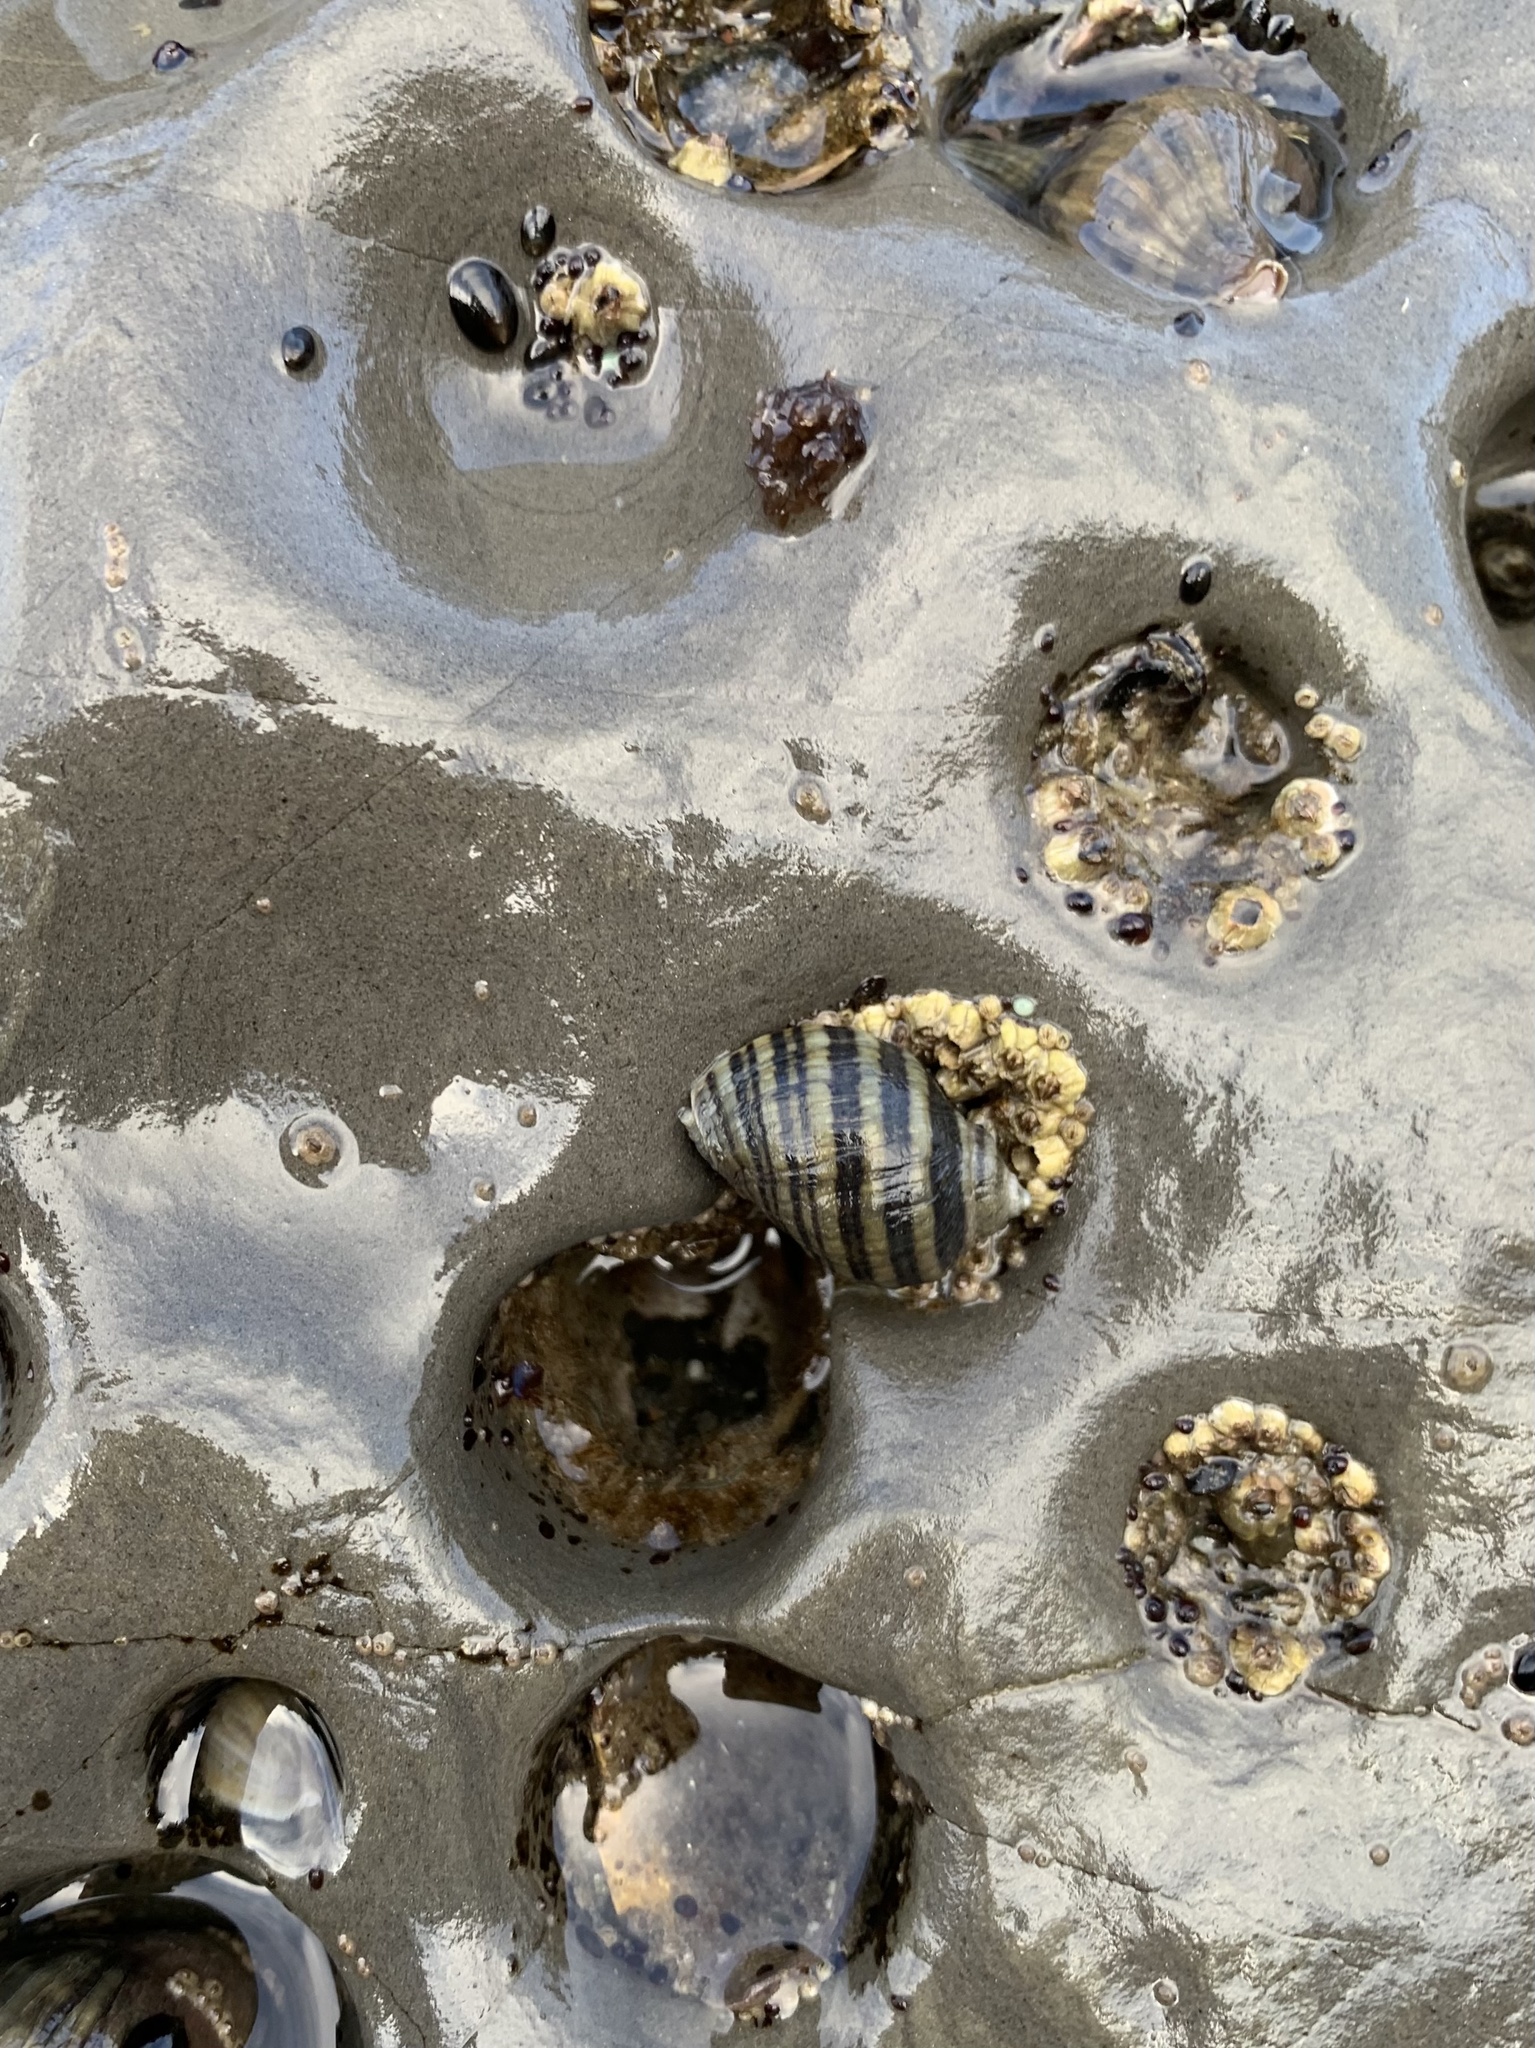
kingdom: Animalia
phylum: Mollusca
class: Gastropoda
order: Neogastropoda
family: Muricidae
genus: Nucella
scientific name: Nucella ostrina
